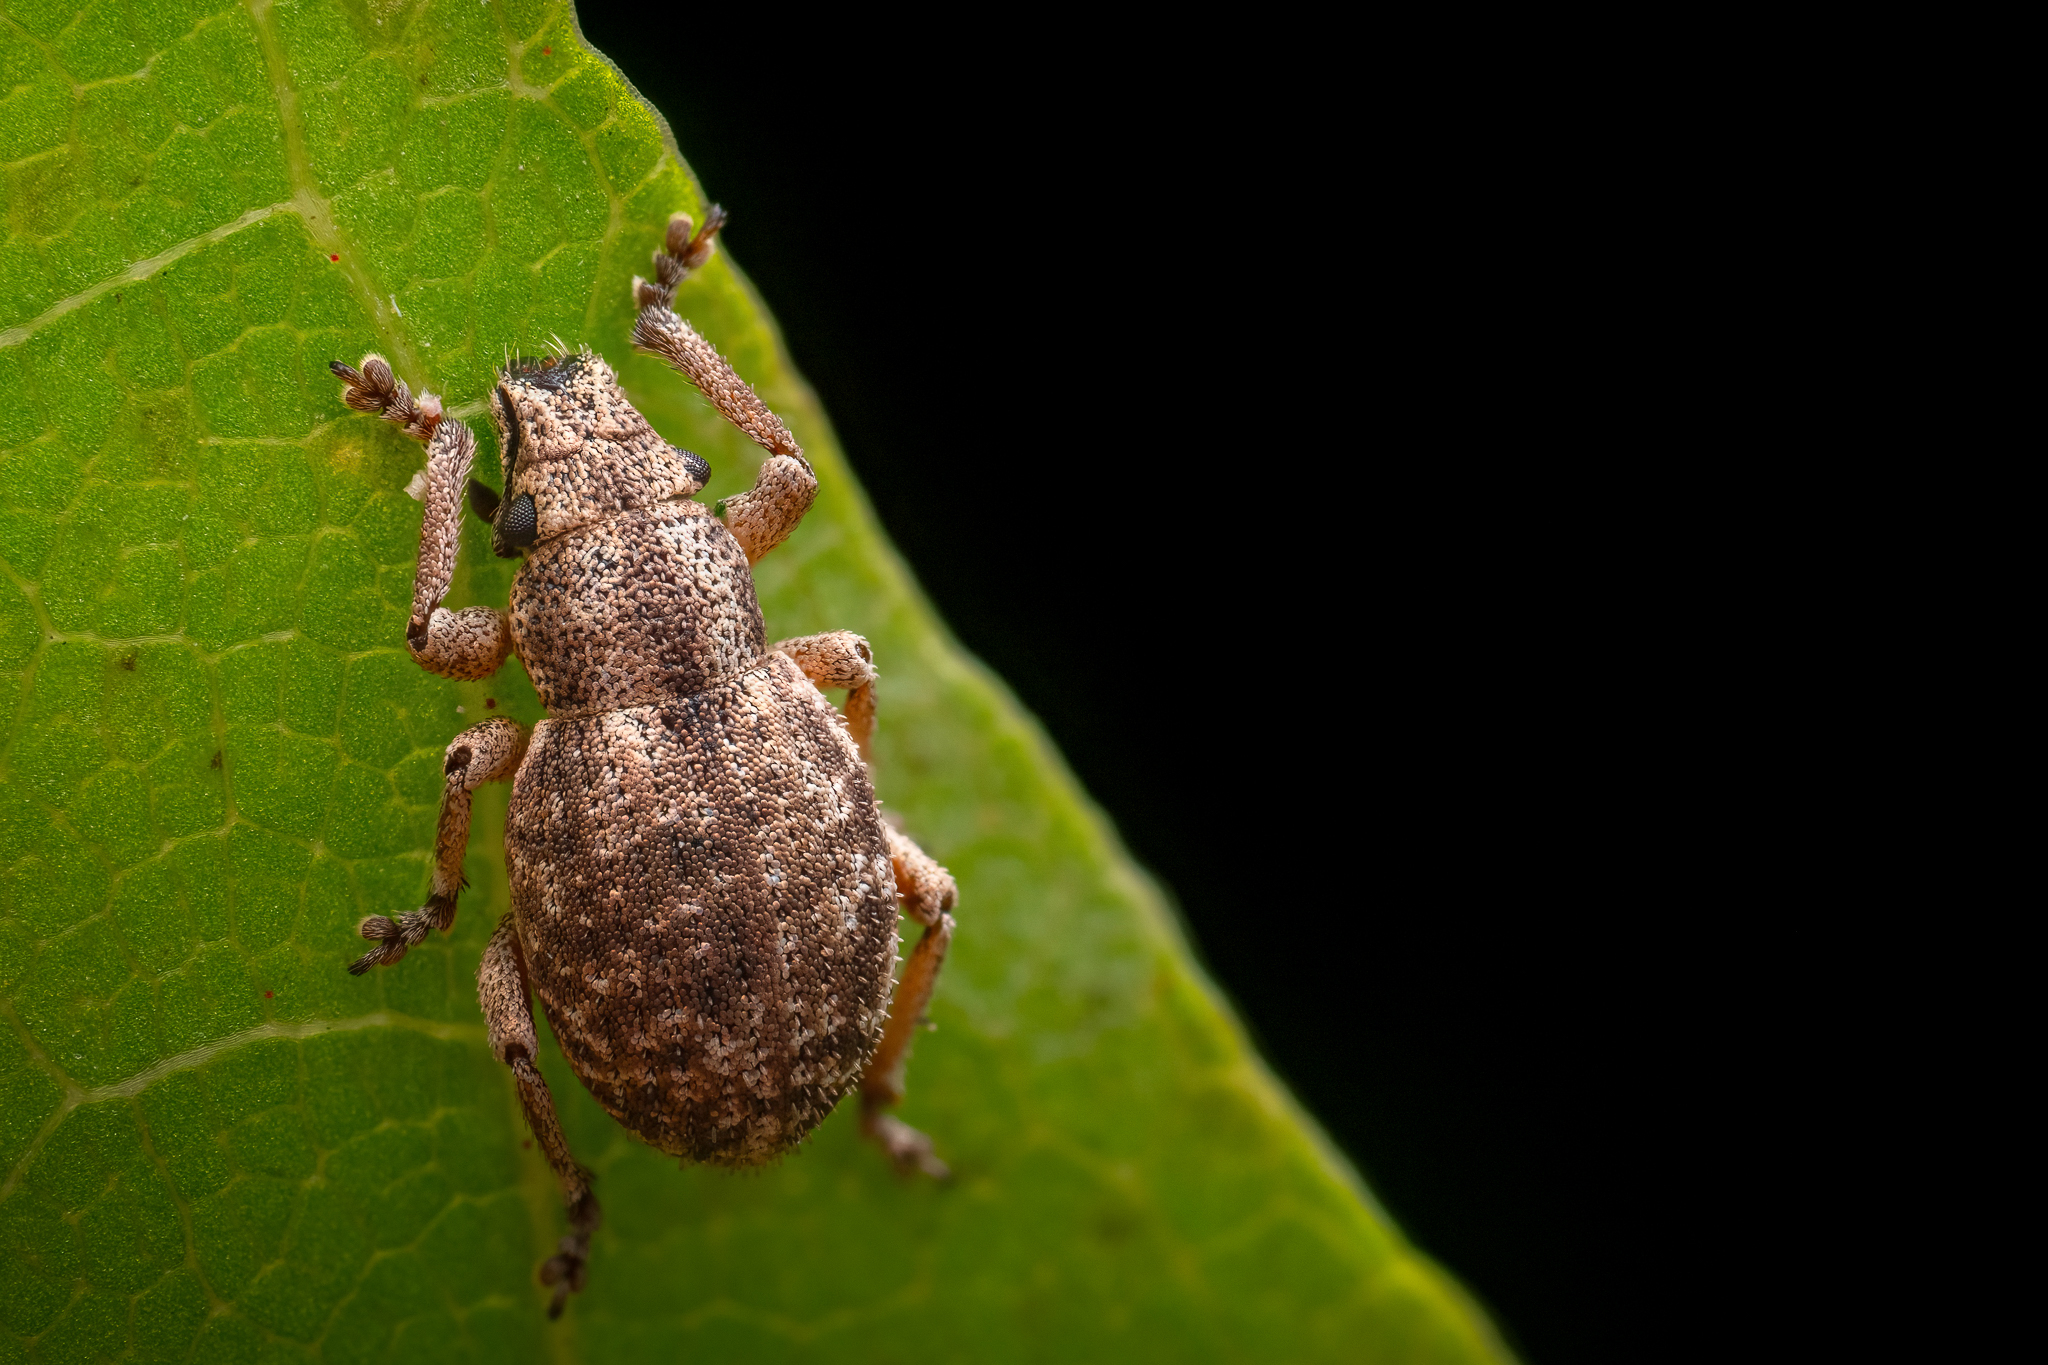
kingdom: Animalia
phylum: Arthropoda
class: Insecta
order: Coleoptera
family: Curculionidae
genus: Strophosoma
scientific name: Strophosoma capitatum
